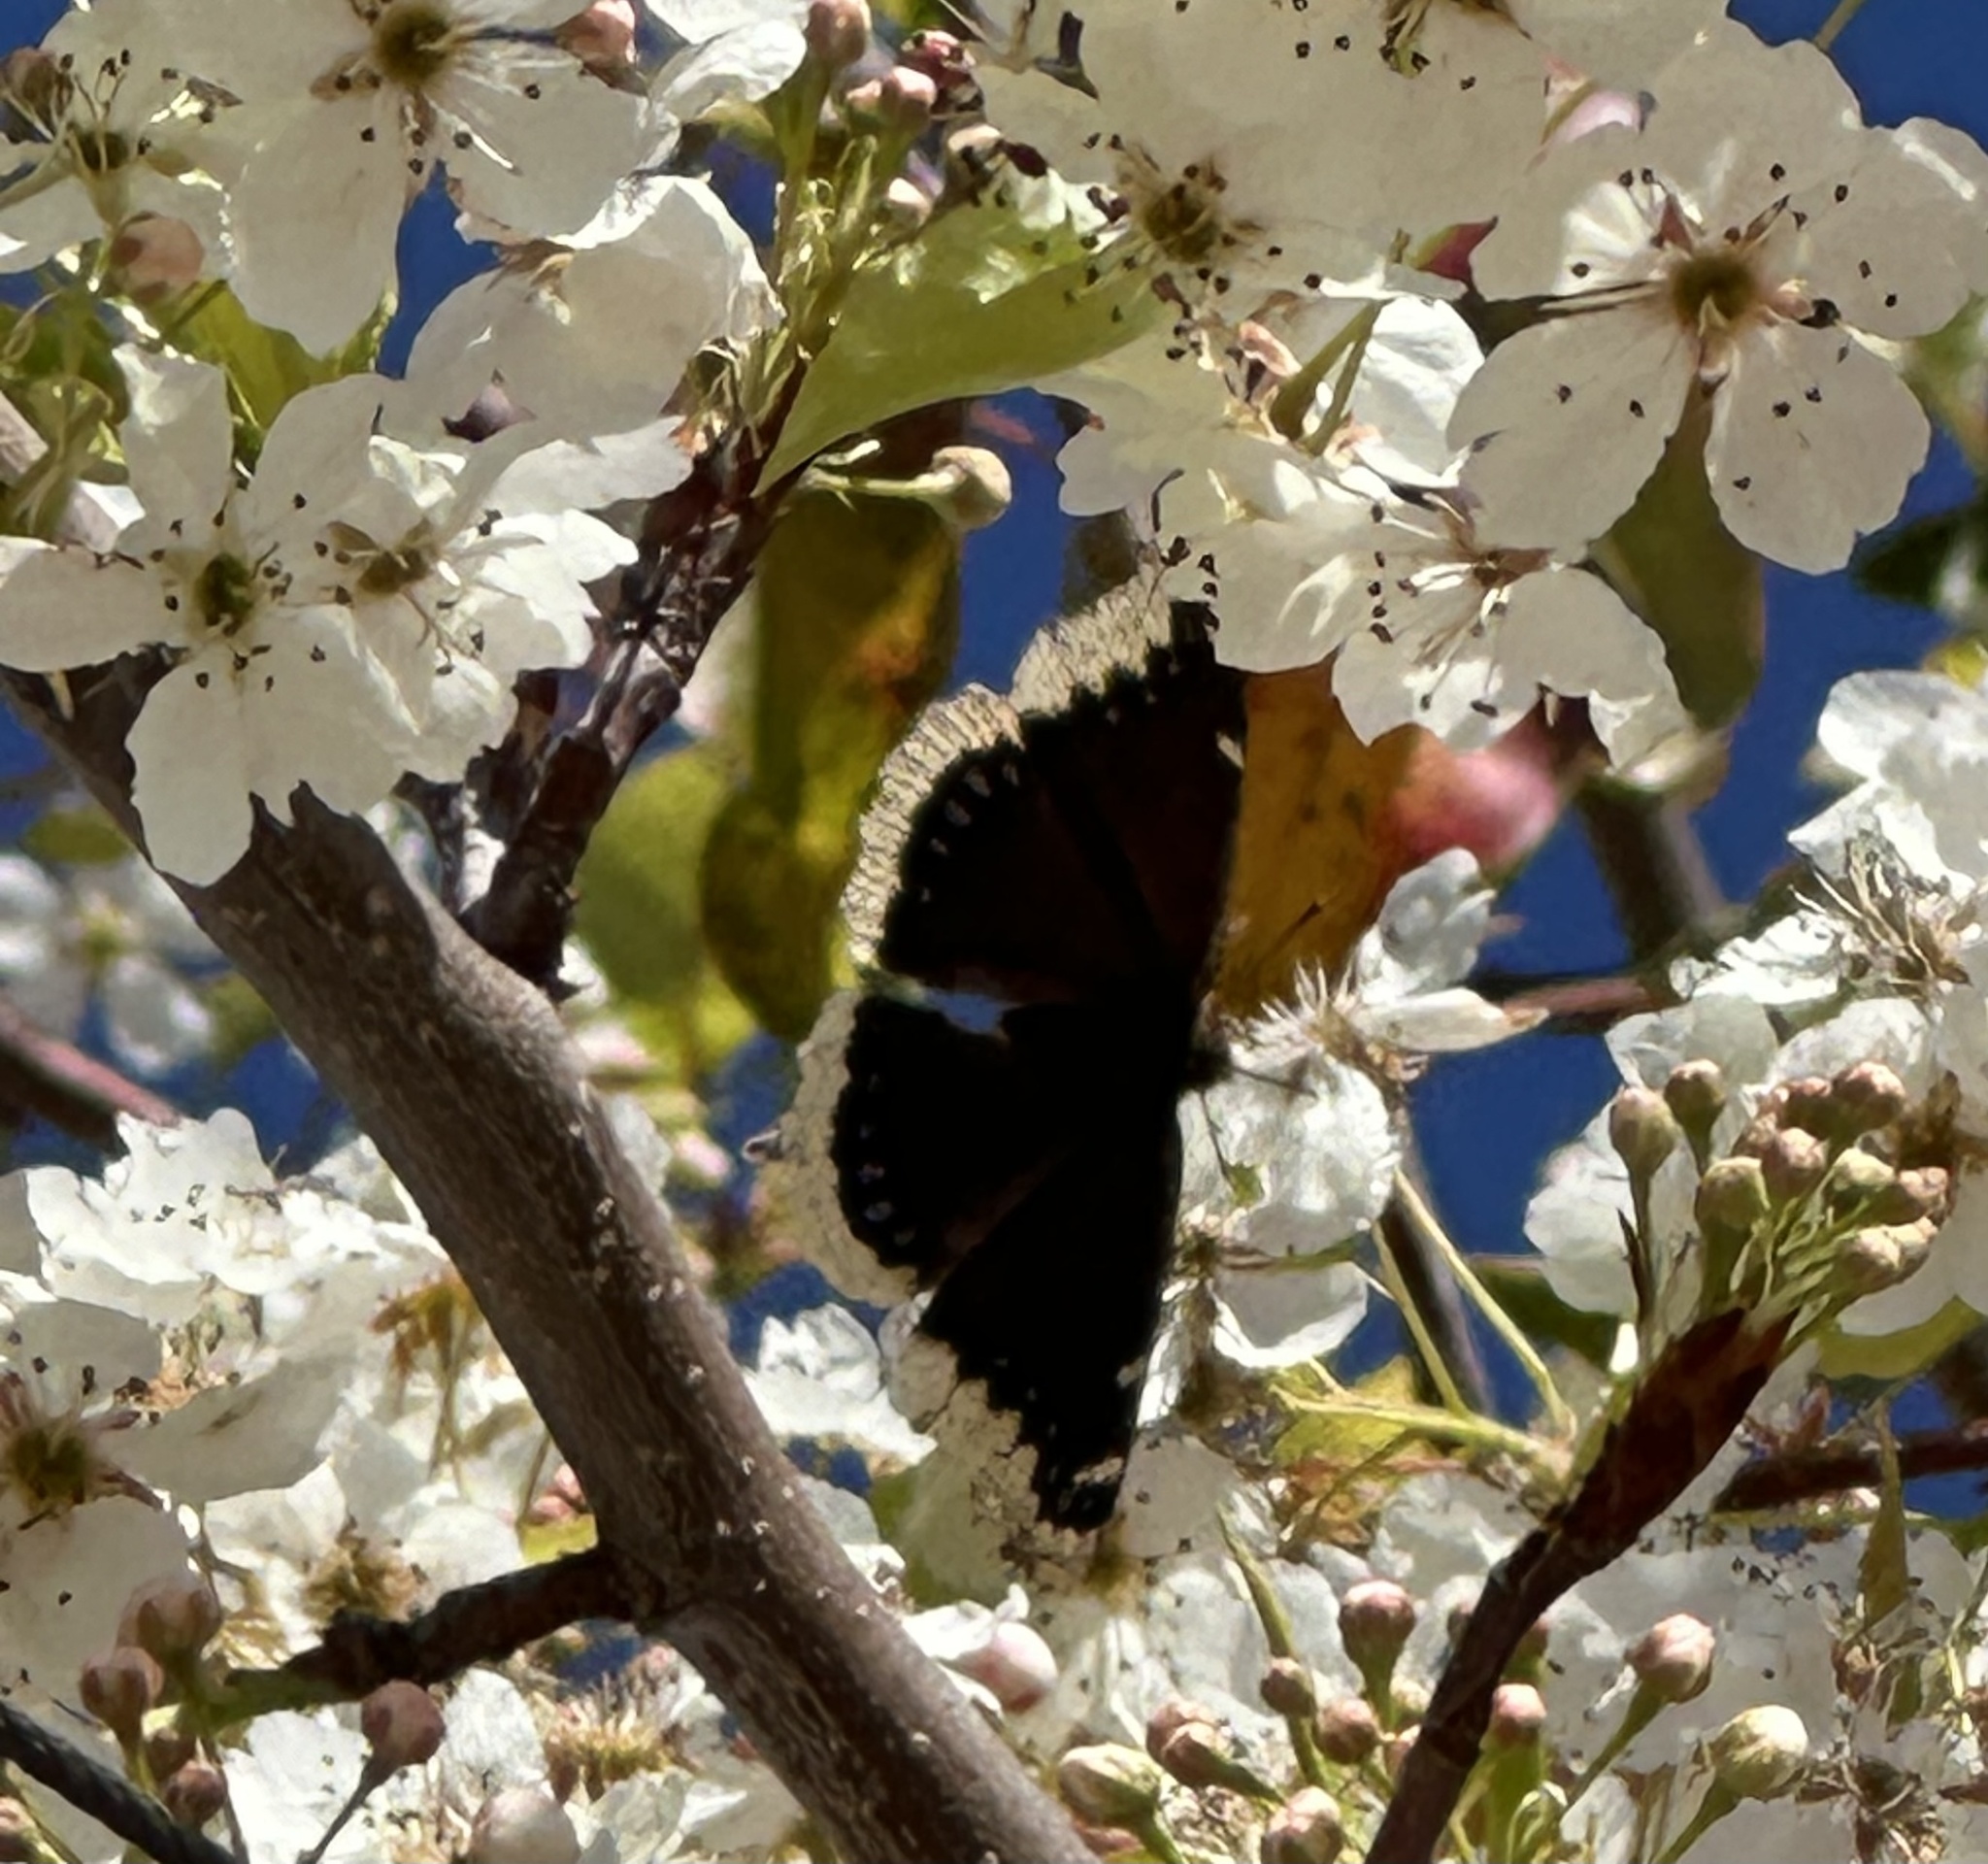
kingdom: Animalia
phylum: Arthropoda
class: Insecta
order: Lepidoptera
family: Nymphalidae
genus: Nymphalis
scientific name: Nymphalis antiopa
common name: Camberwell beauty
